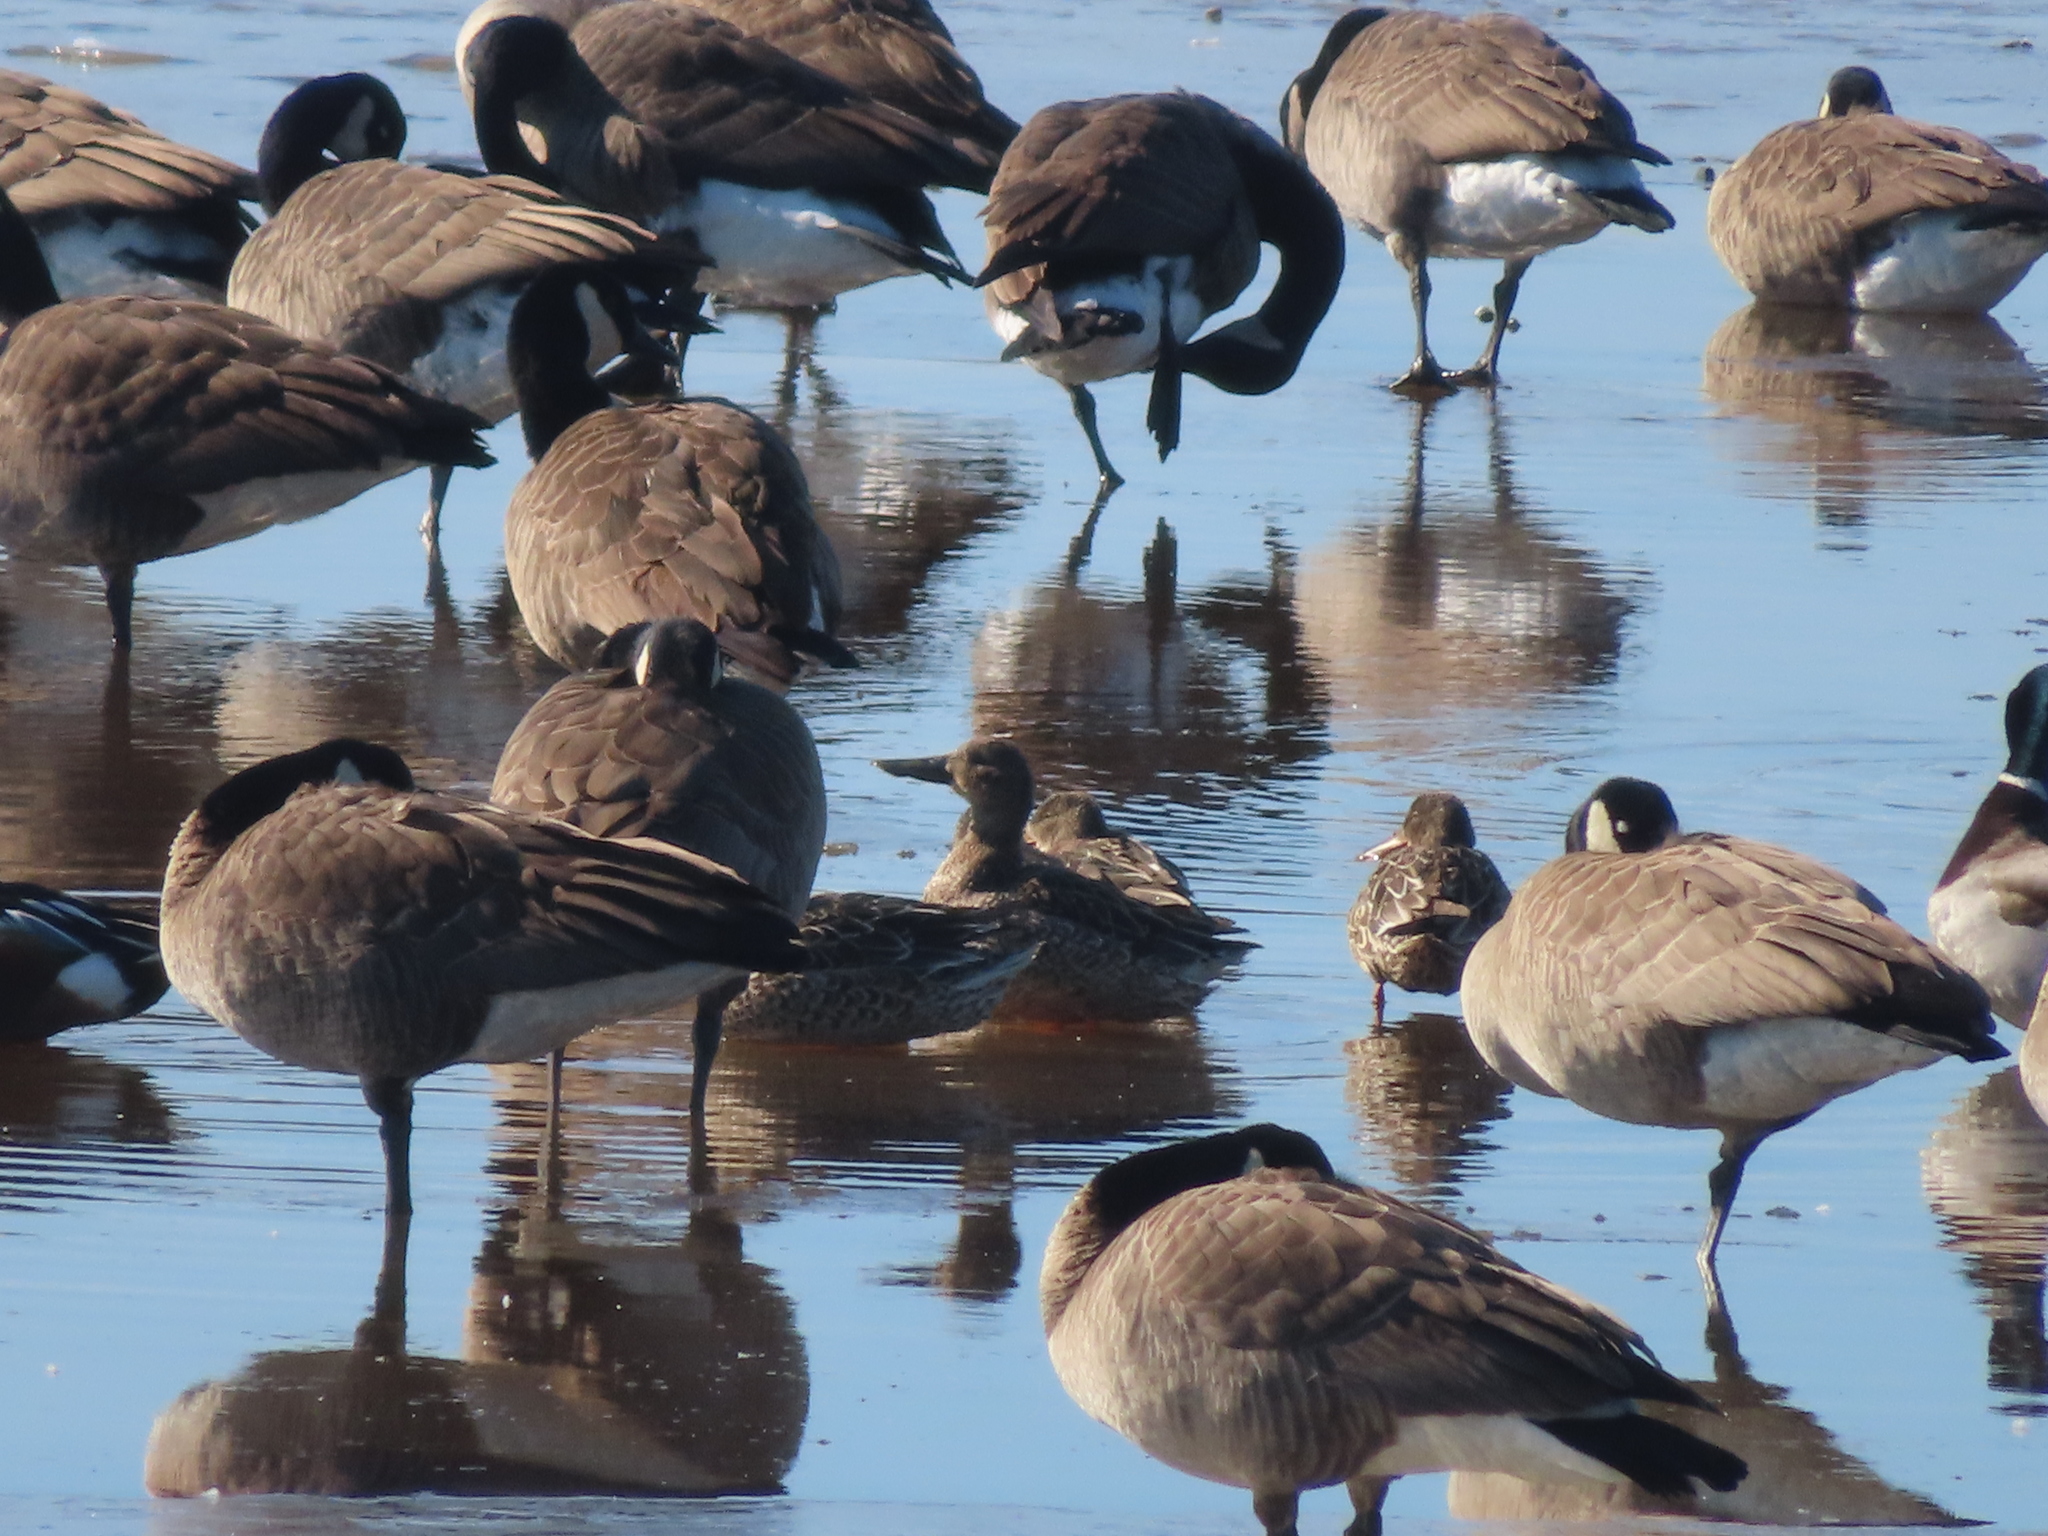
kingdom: Animalia
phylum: Chordata
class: Aves
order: Anseriformes
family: Anatidae
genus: Branta
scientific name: Branta canadensis
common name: Canada goose
